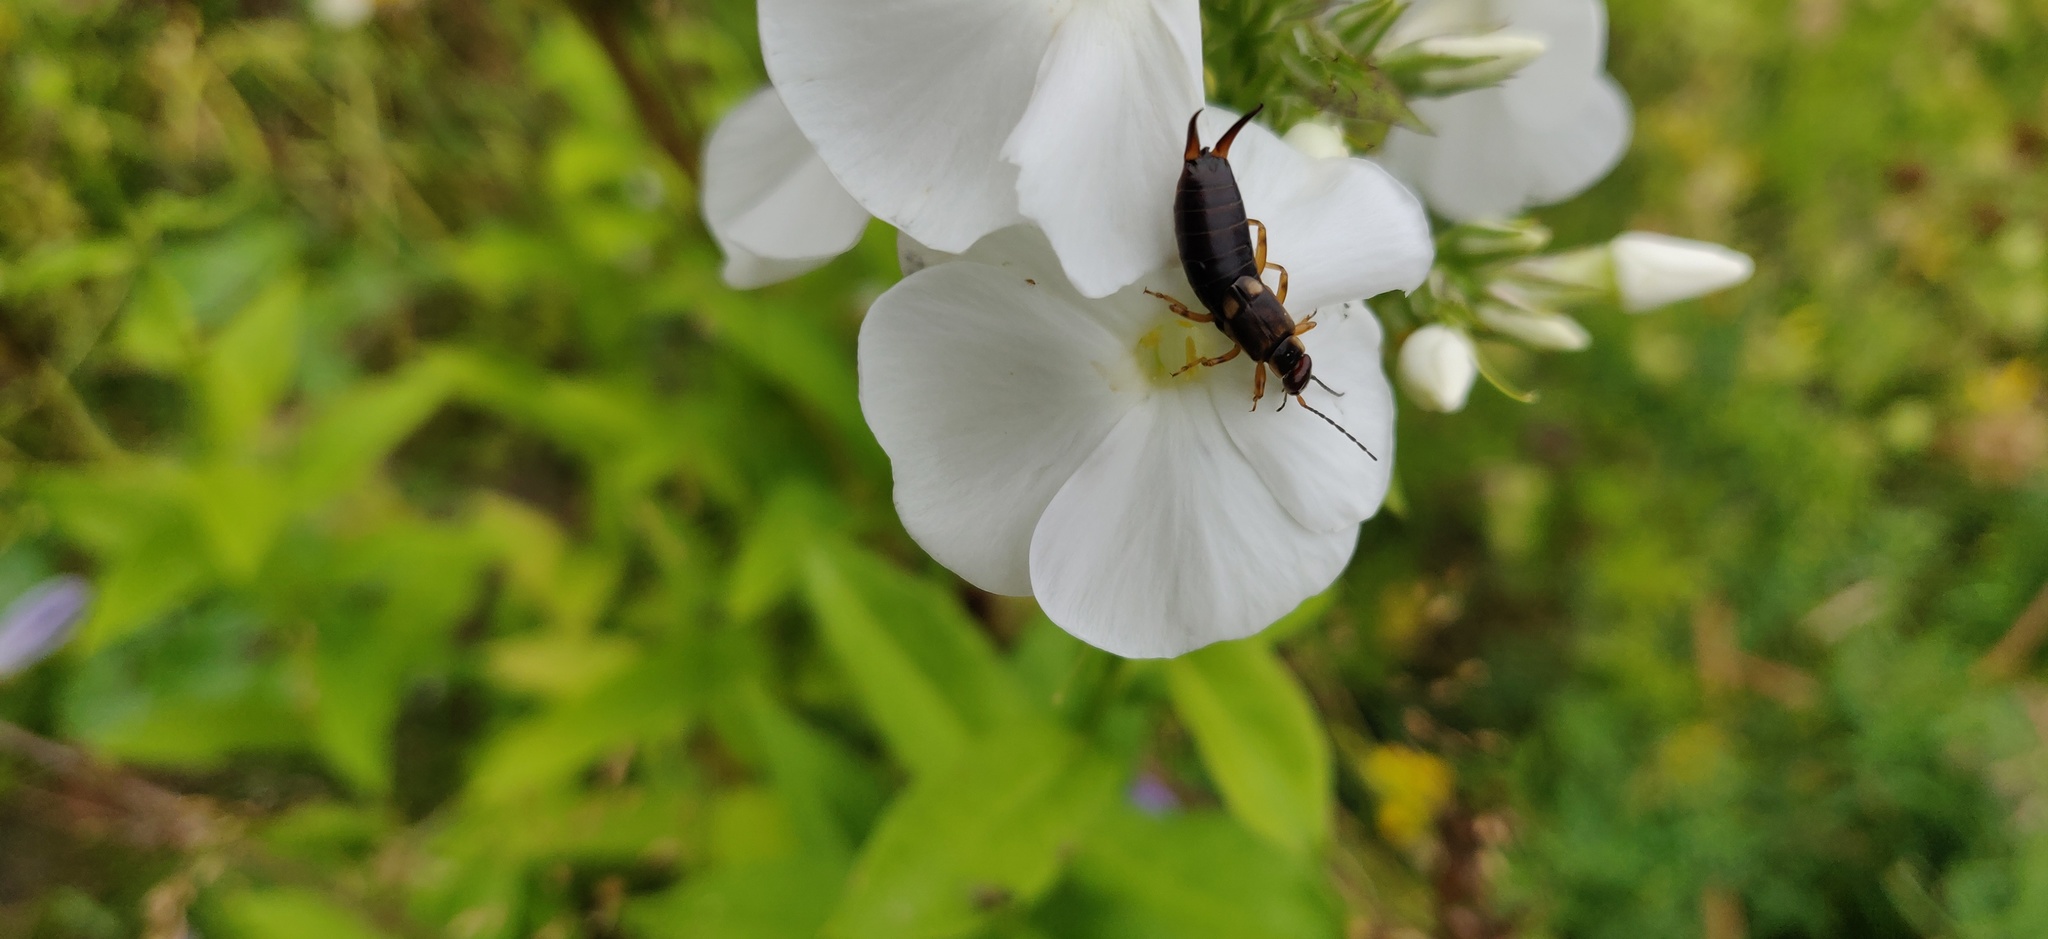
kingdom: Animalia
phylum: Arthropoda
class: Insecta
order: Dermaptera
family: Forficulidae
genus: Forficula
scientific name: Forficula
